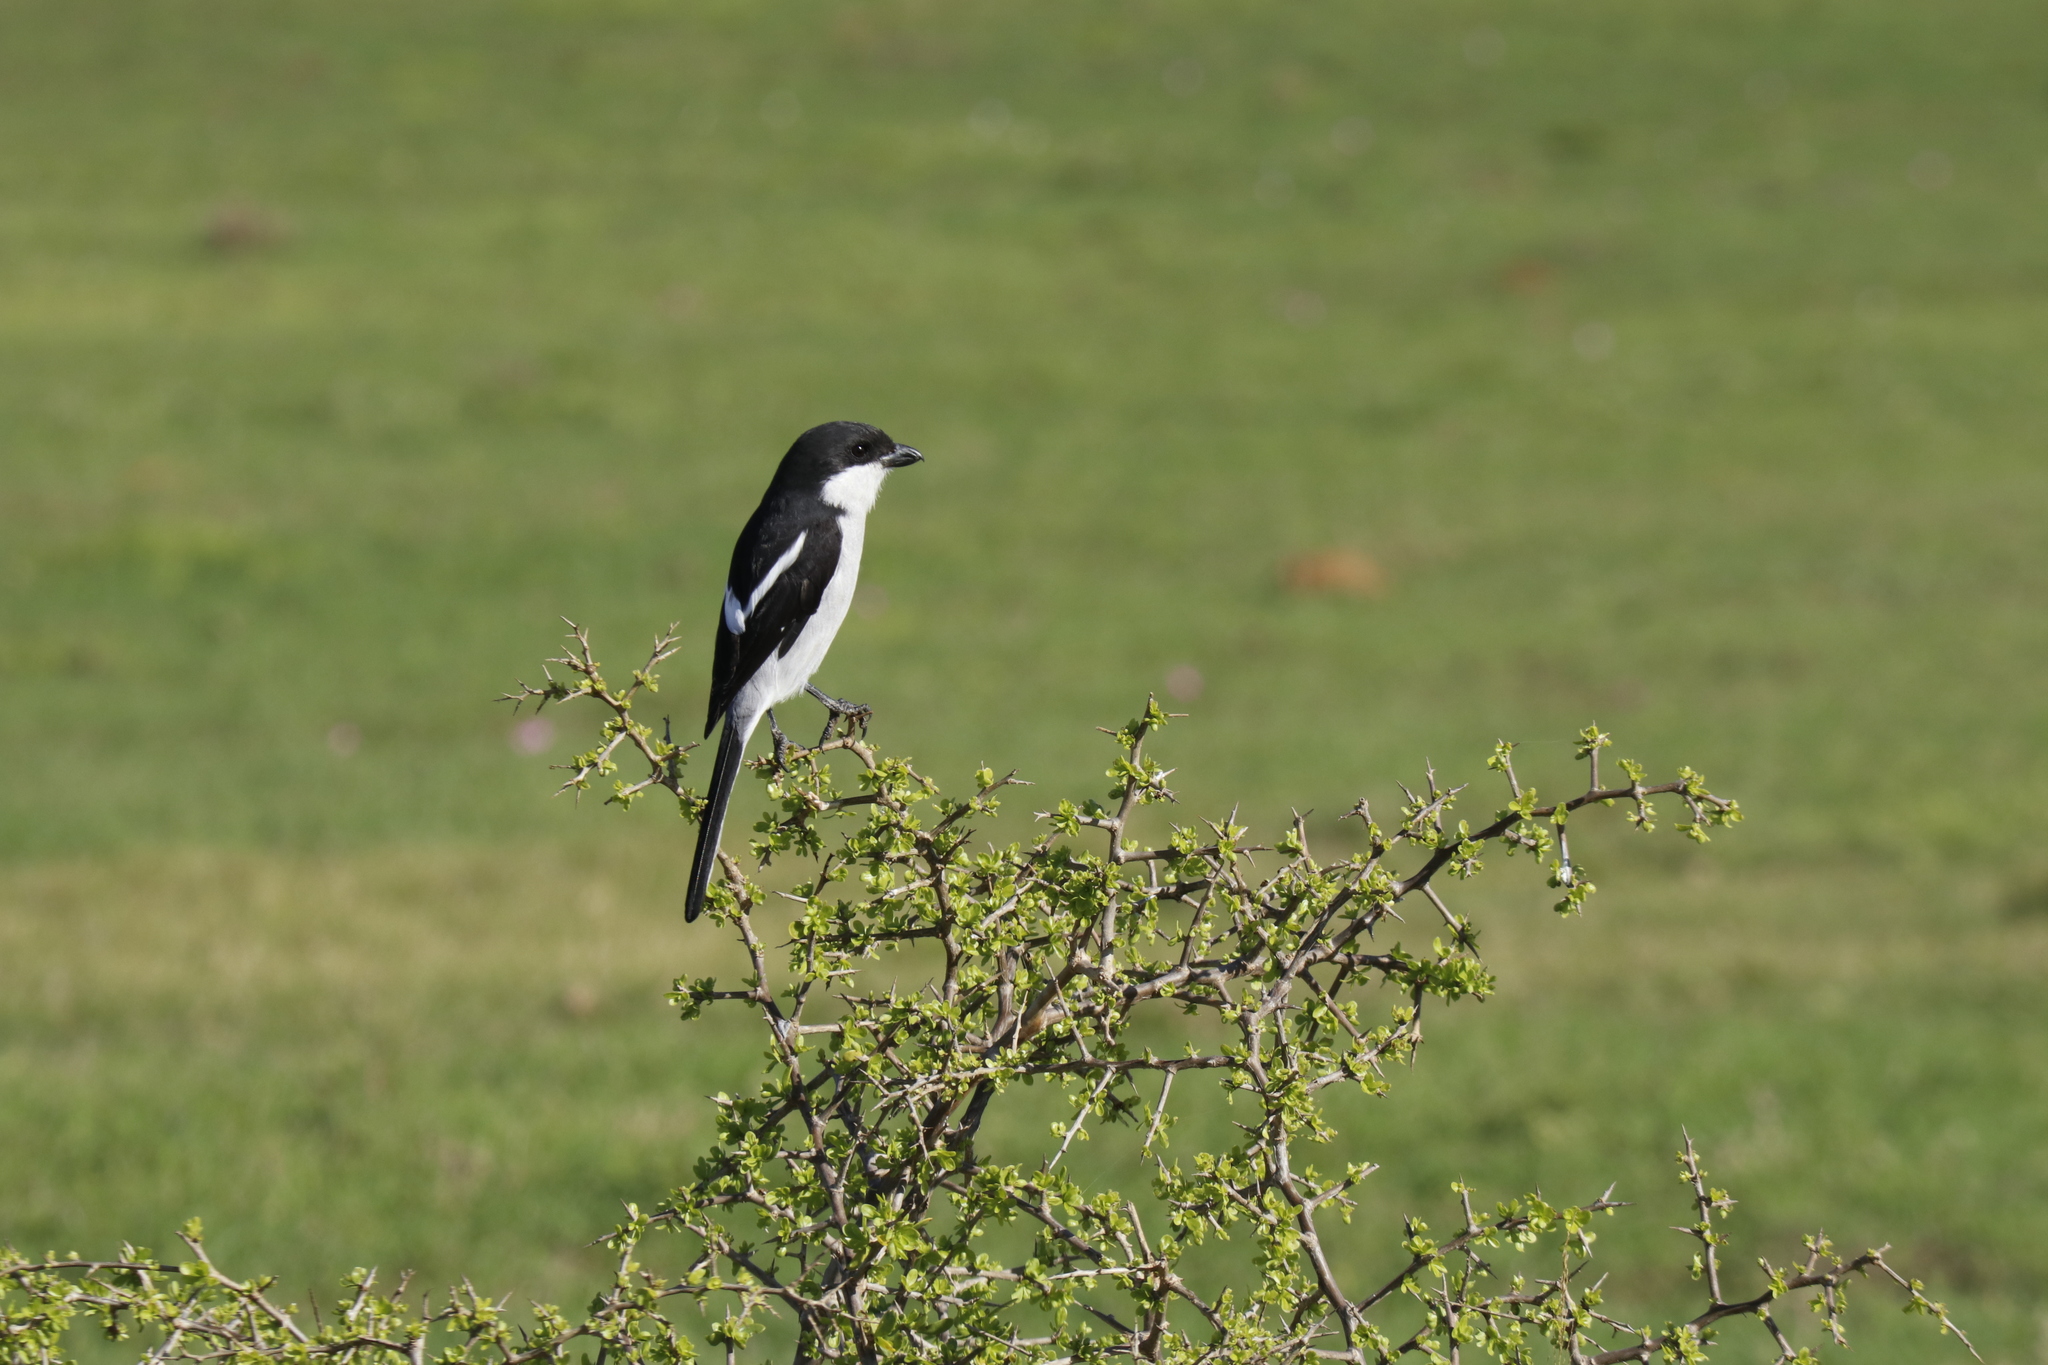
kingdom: Animalia
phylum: Chordata
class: Aves
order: Passeriformes
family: Laniidae
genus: Lanius
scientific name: Lanius collaris
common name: Southern fiscal
